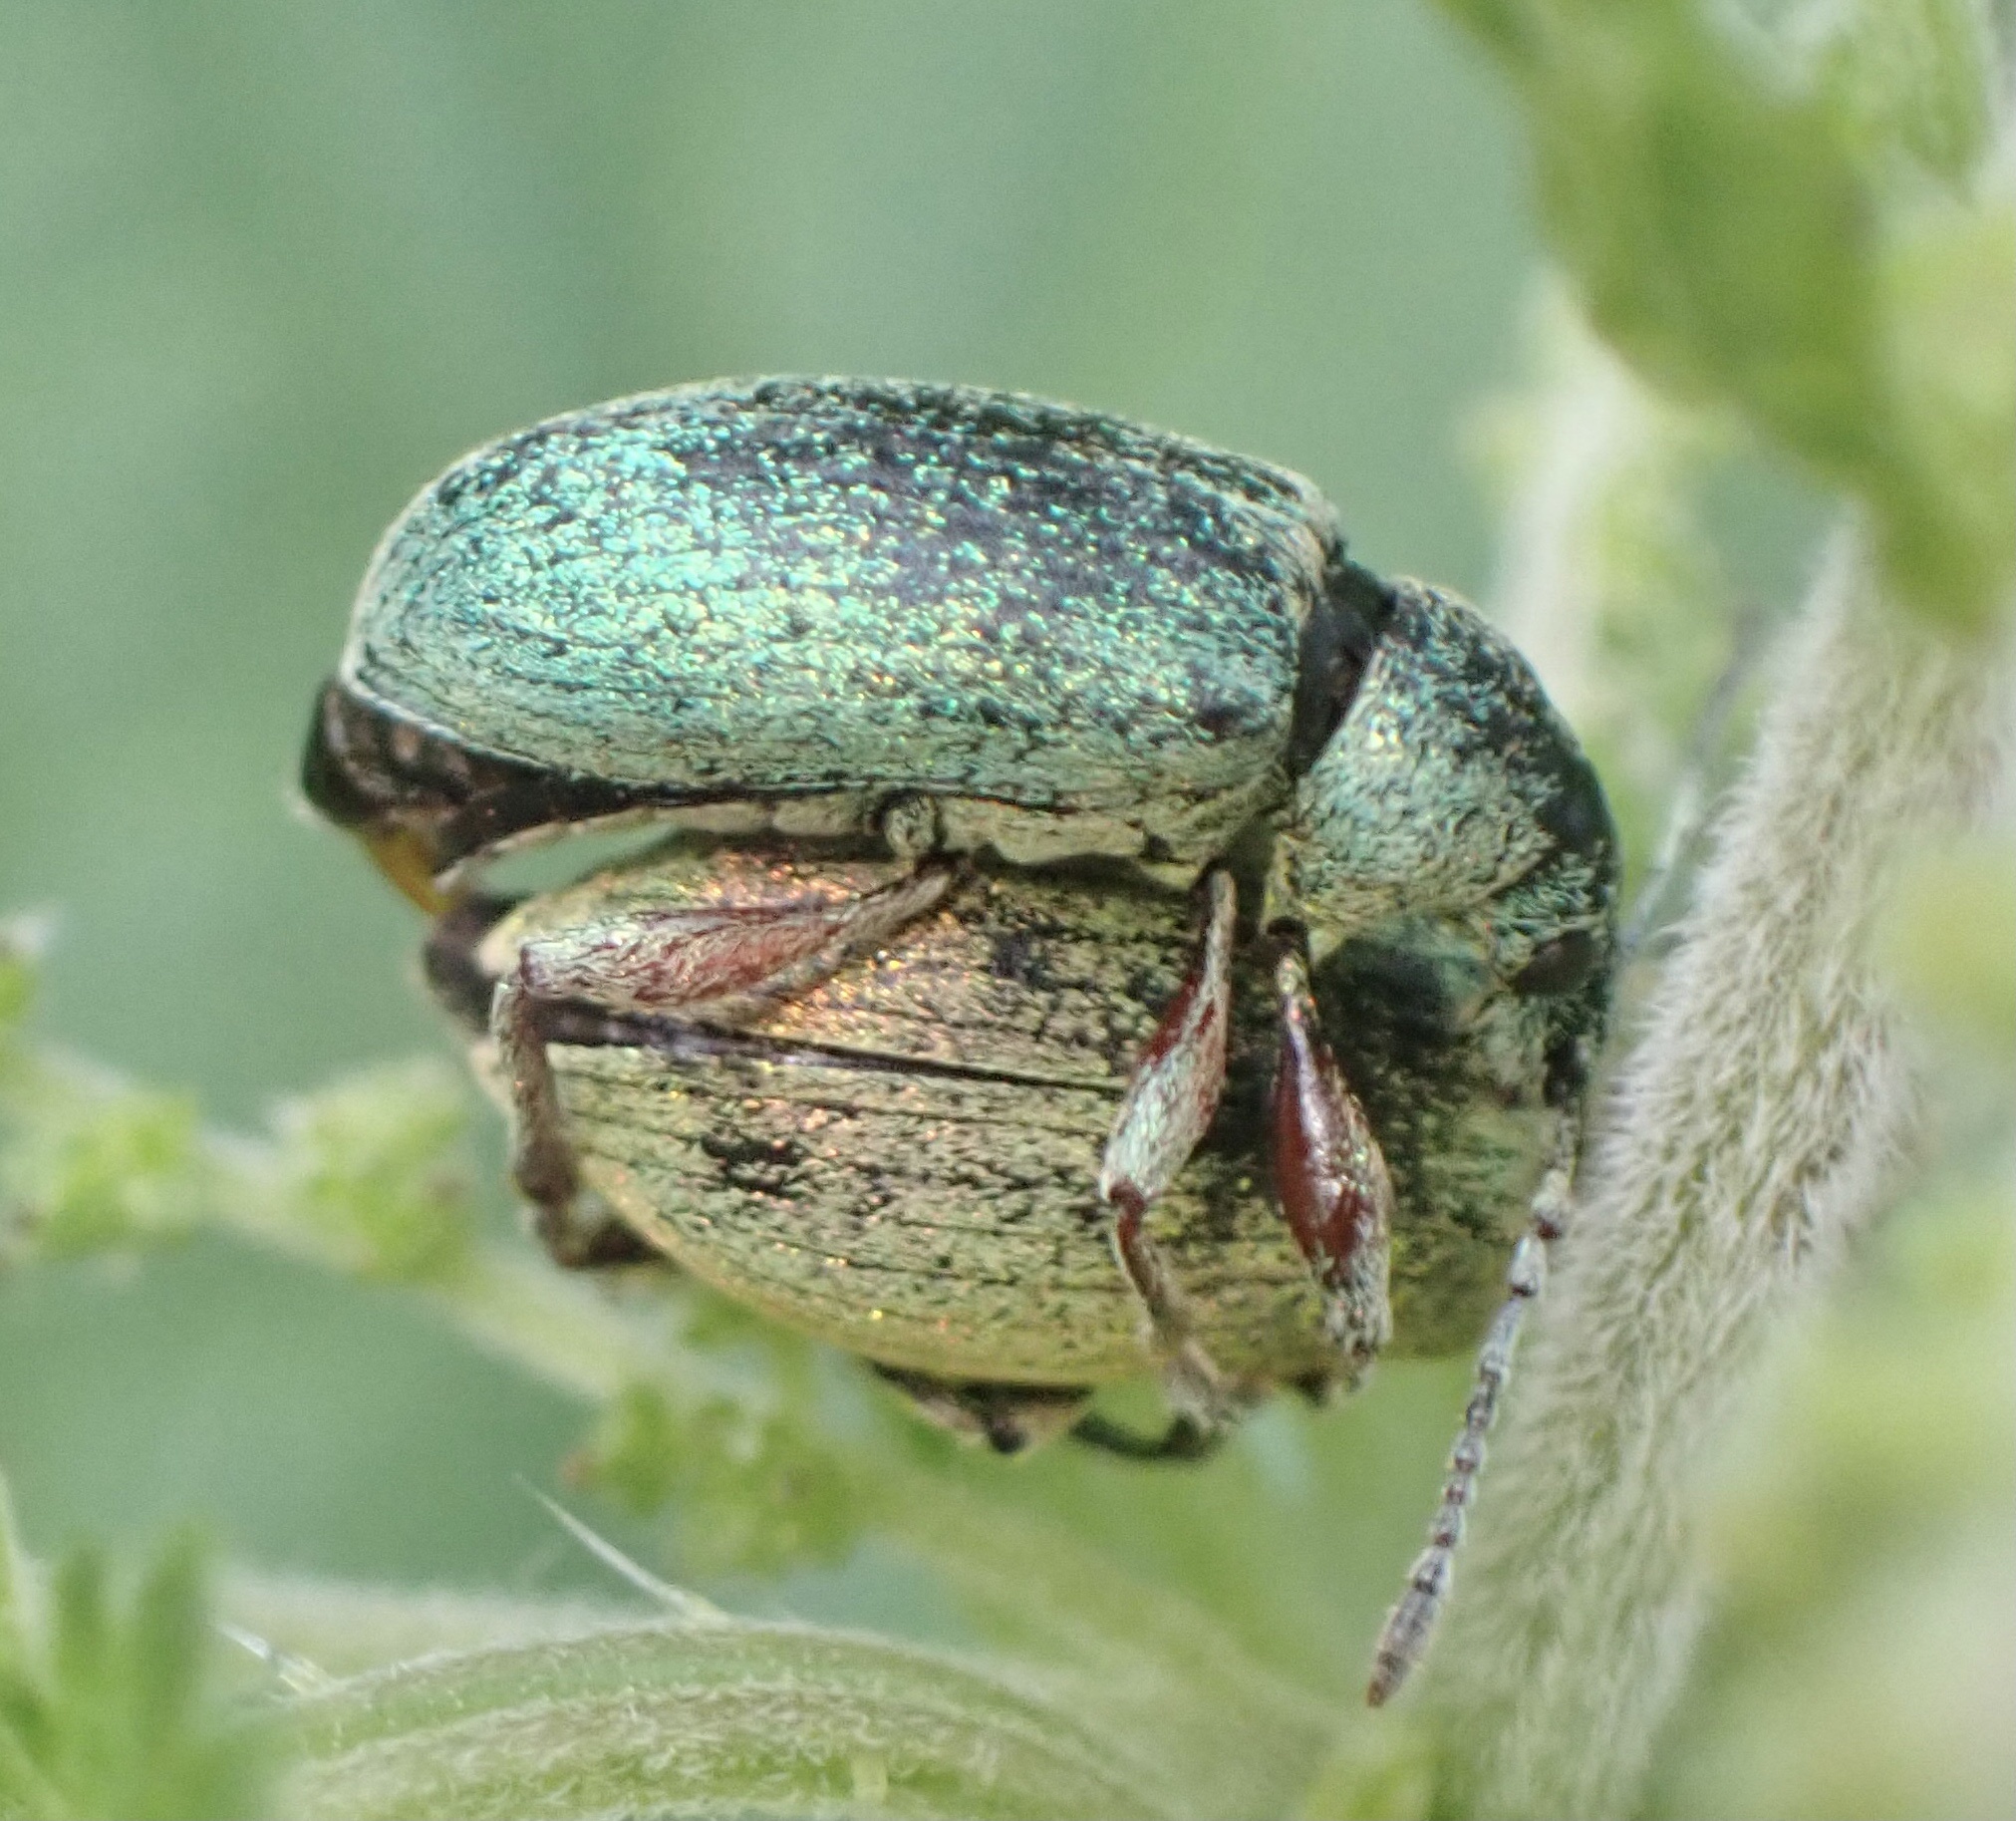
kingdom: Animalia
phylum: Arthropoda
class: Insecta
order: Coleoptera
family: Curculionidae
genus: Phyllobius
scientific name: Phyllobius pomaceus
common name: Green nettle weevil
